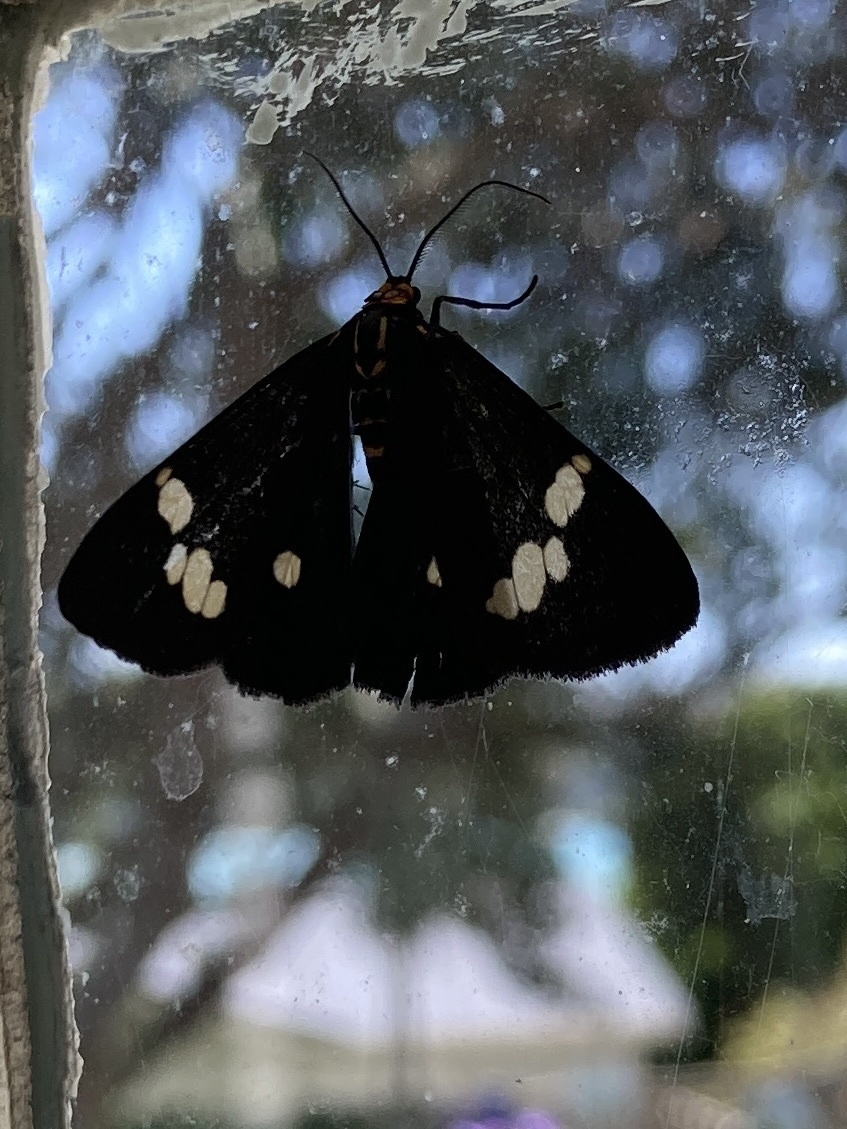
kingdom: Animalia
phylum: Arthropoda
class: Insecta
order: Lepidoptera
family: Erebidae
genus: Nyctemera
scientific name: Nyctemera annulatum
